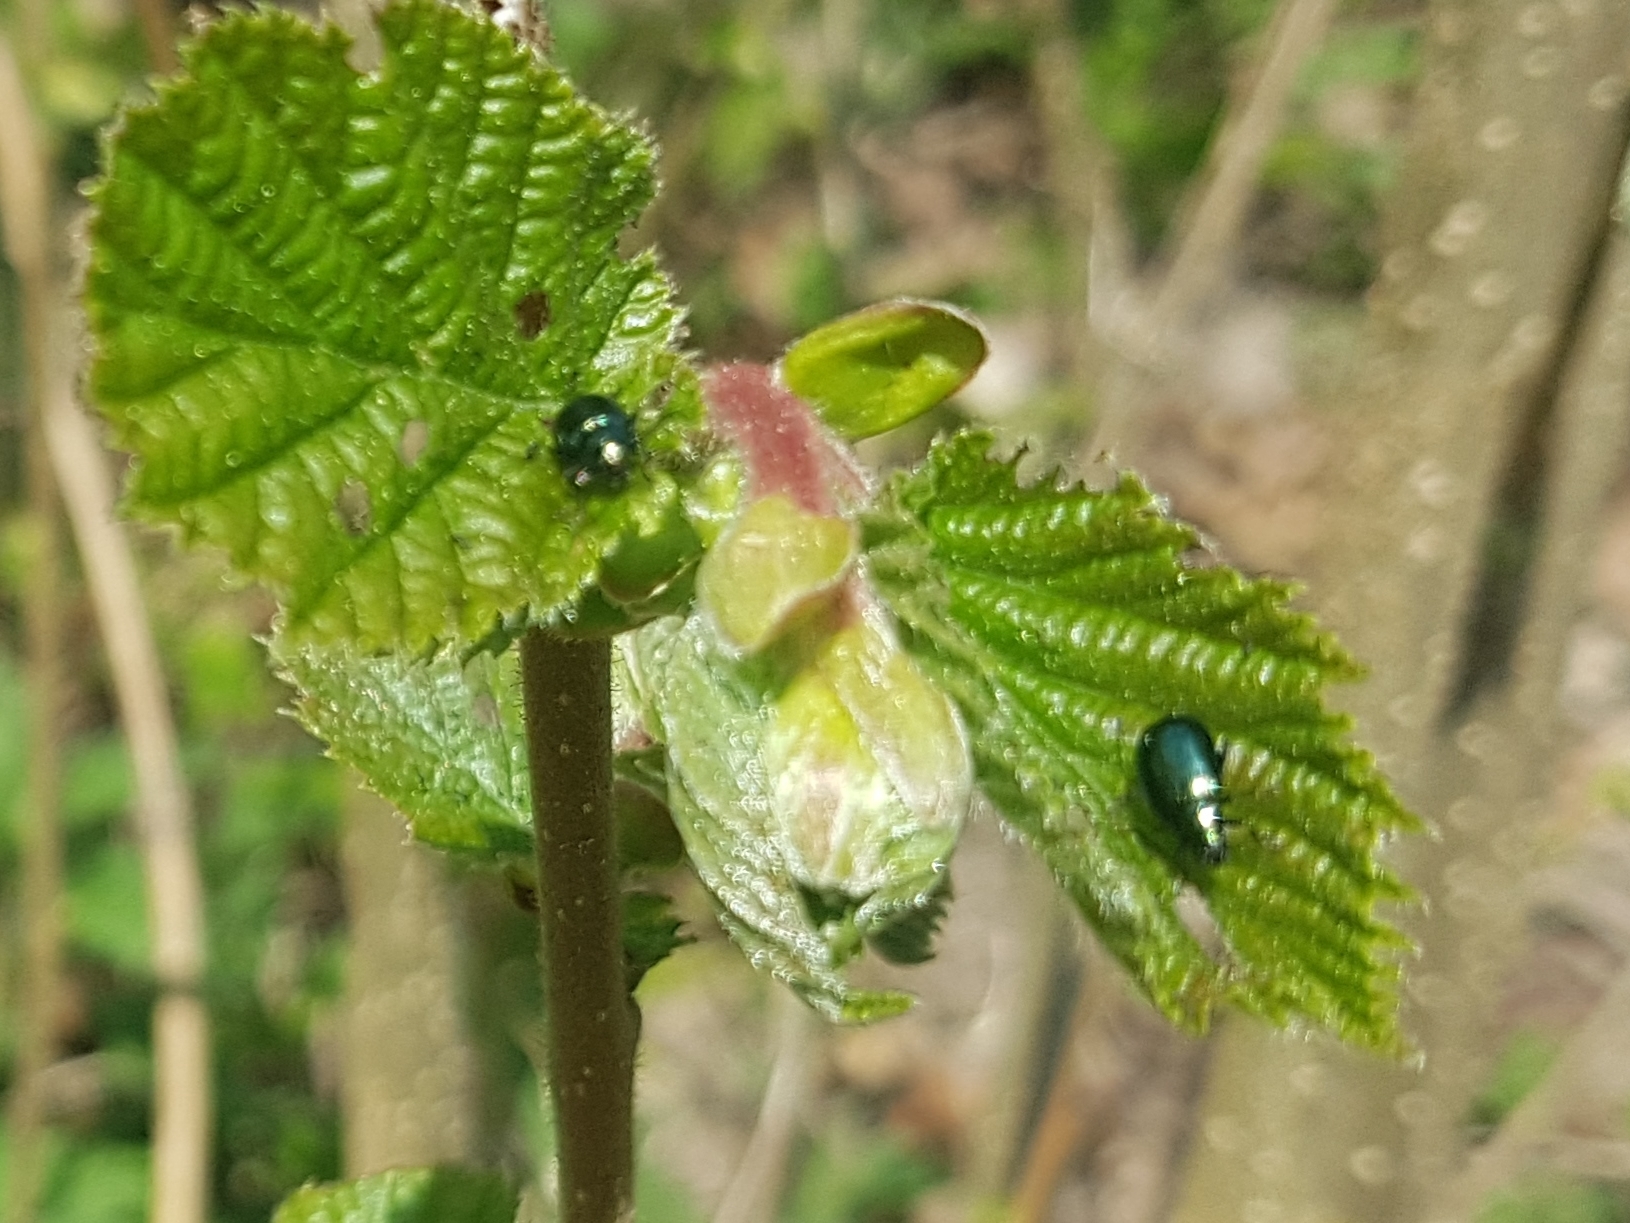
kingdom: Animalia
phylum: Arthropoda
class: Insecta
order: Coleoptera
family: Chrysomelidae
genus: Altica
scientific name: Altica brevicollis
